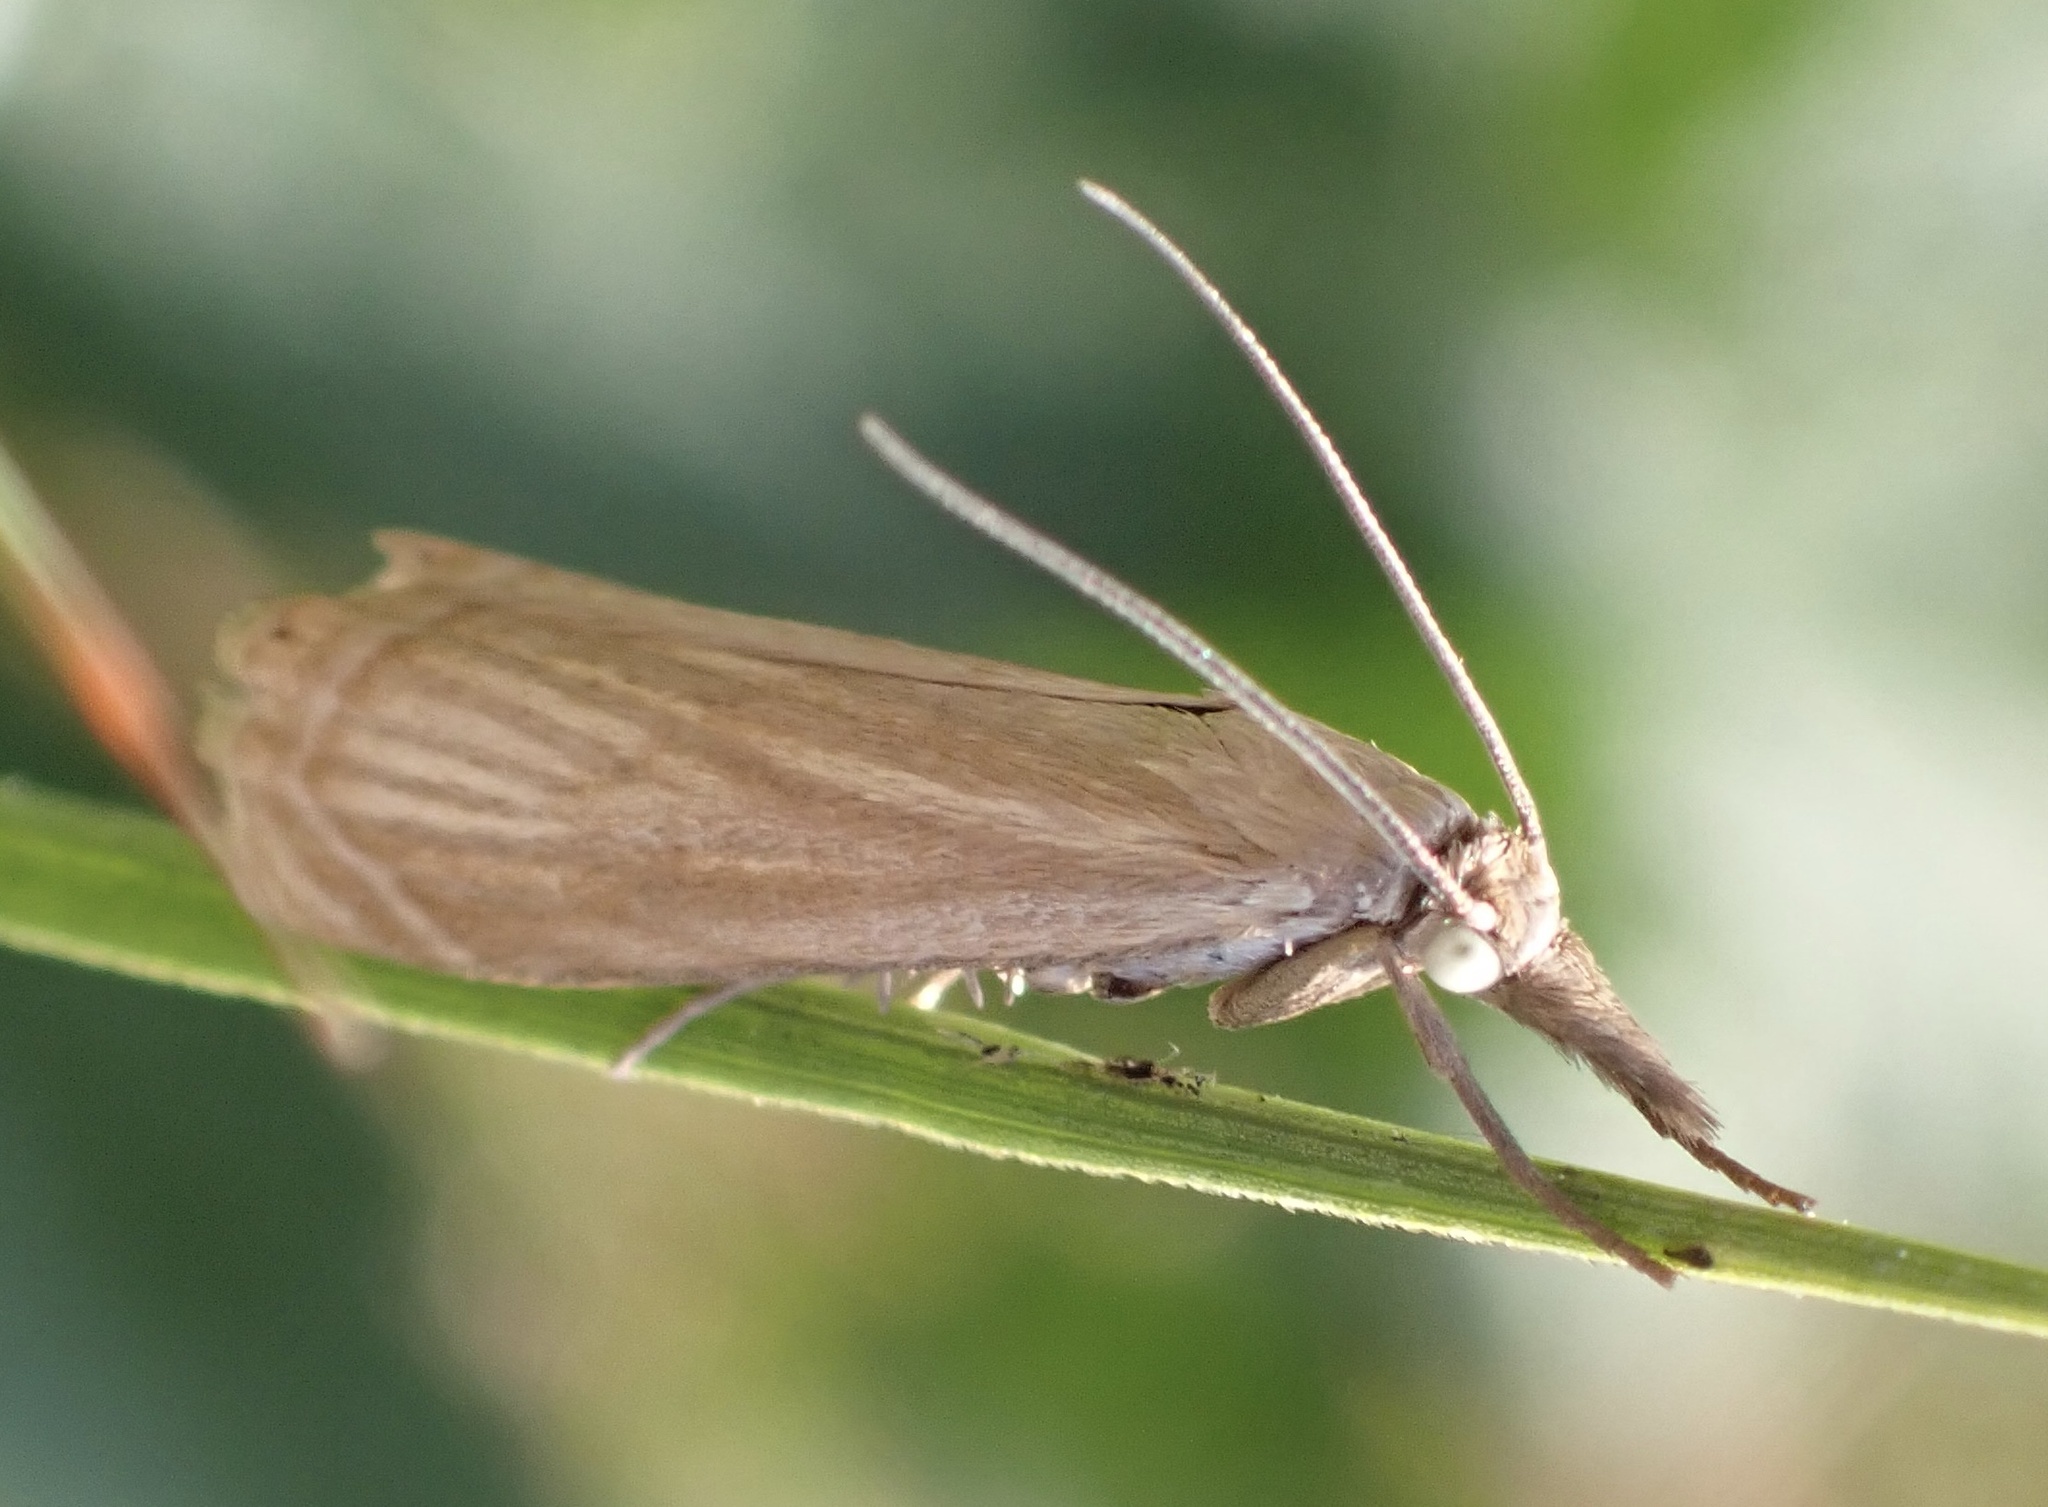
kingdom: Animalia
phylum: Arthropoda
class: Insecta
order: Lepidoptera
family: Crambidae
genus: Chrysoteuchia
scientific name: Chrysoteuchia culmella
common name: Garden grass-veneer
